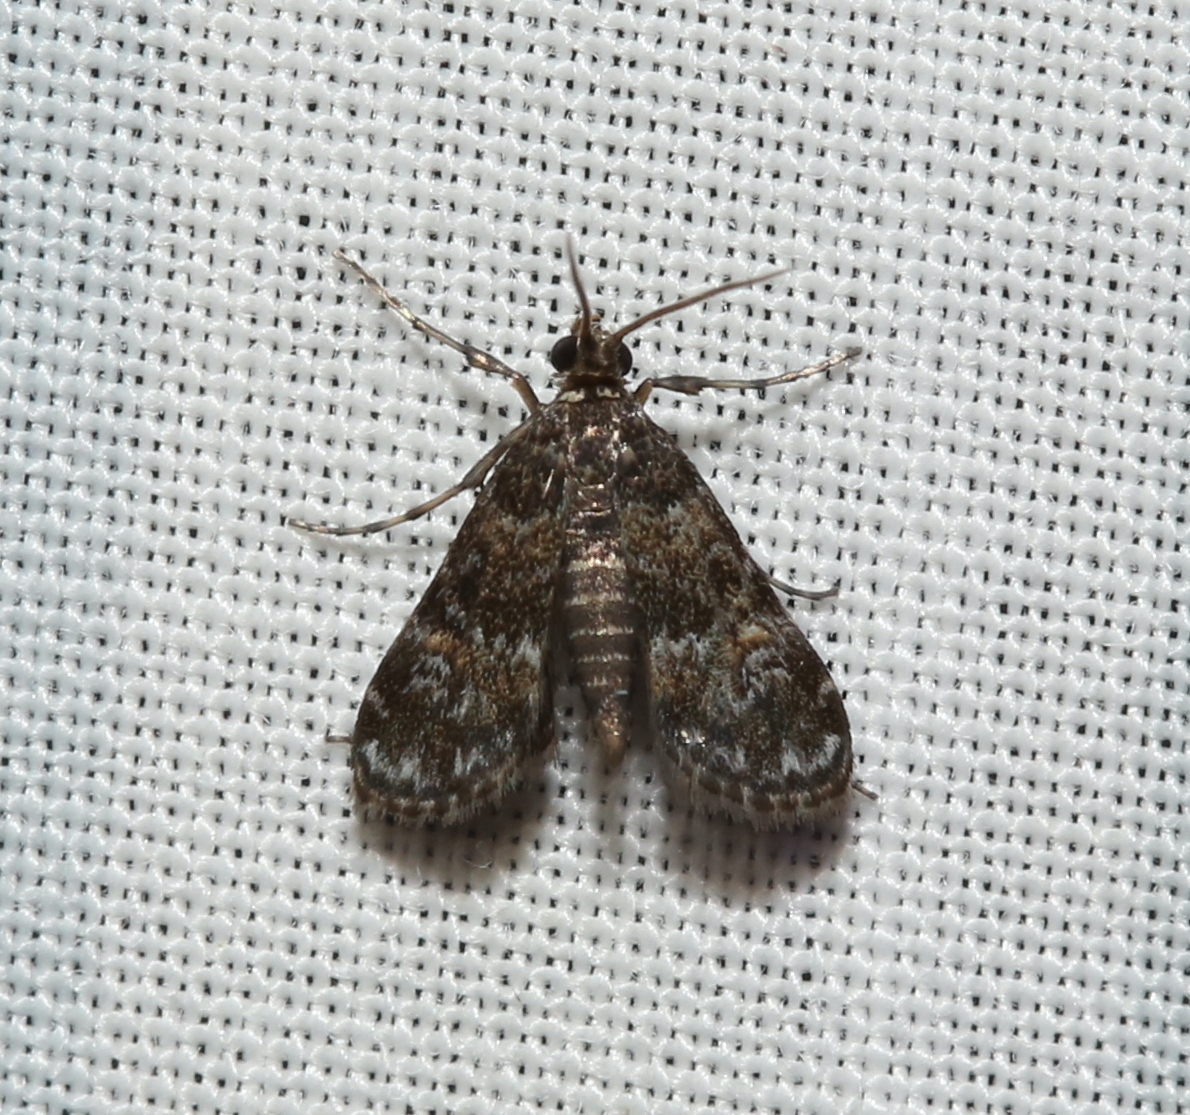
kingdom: Animalia
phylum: Arthropoda
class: Insecta
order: Lepidoptera
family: Crambidae
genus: Elophila
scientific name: Elophila obliteralis
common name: Waterlily leafcutter moth
